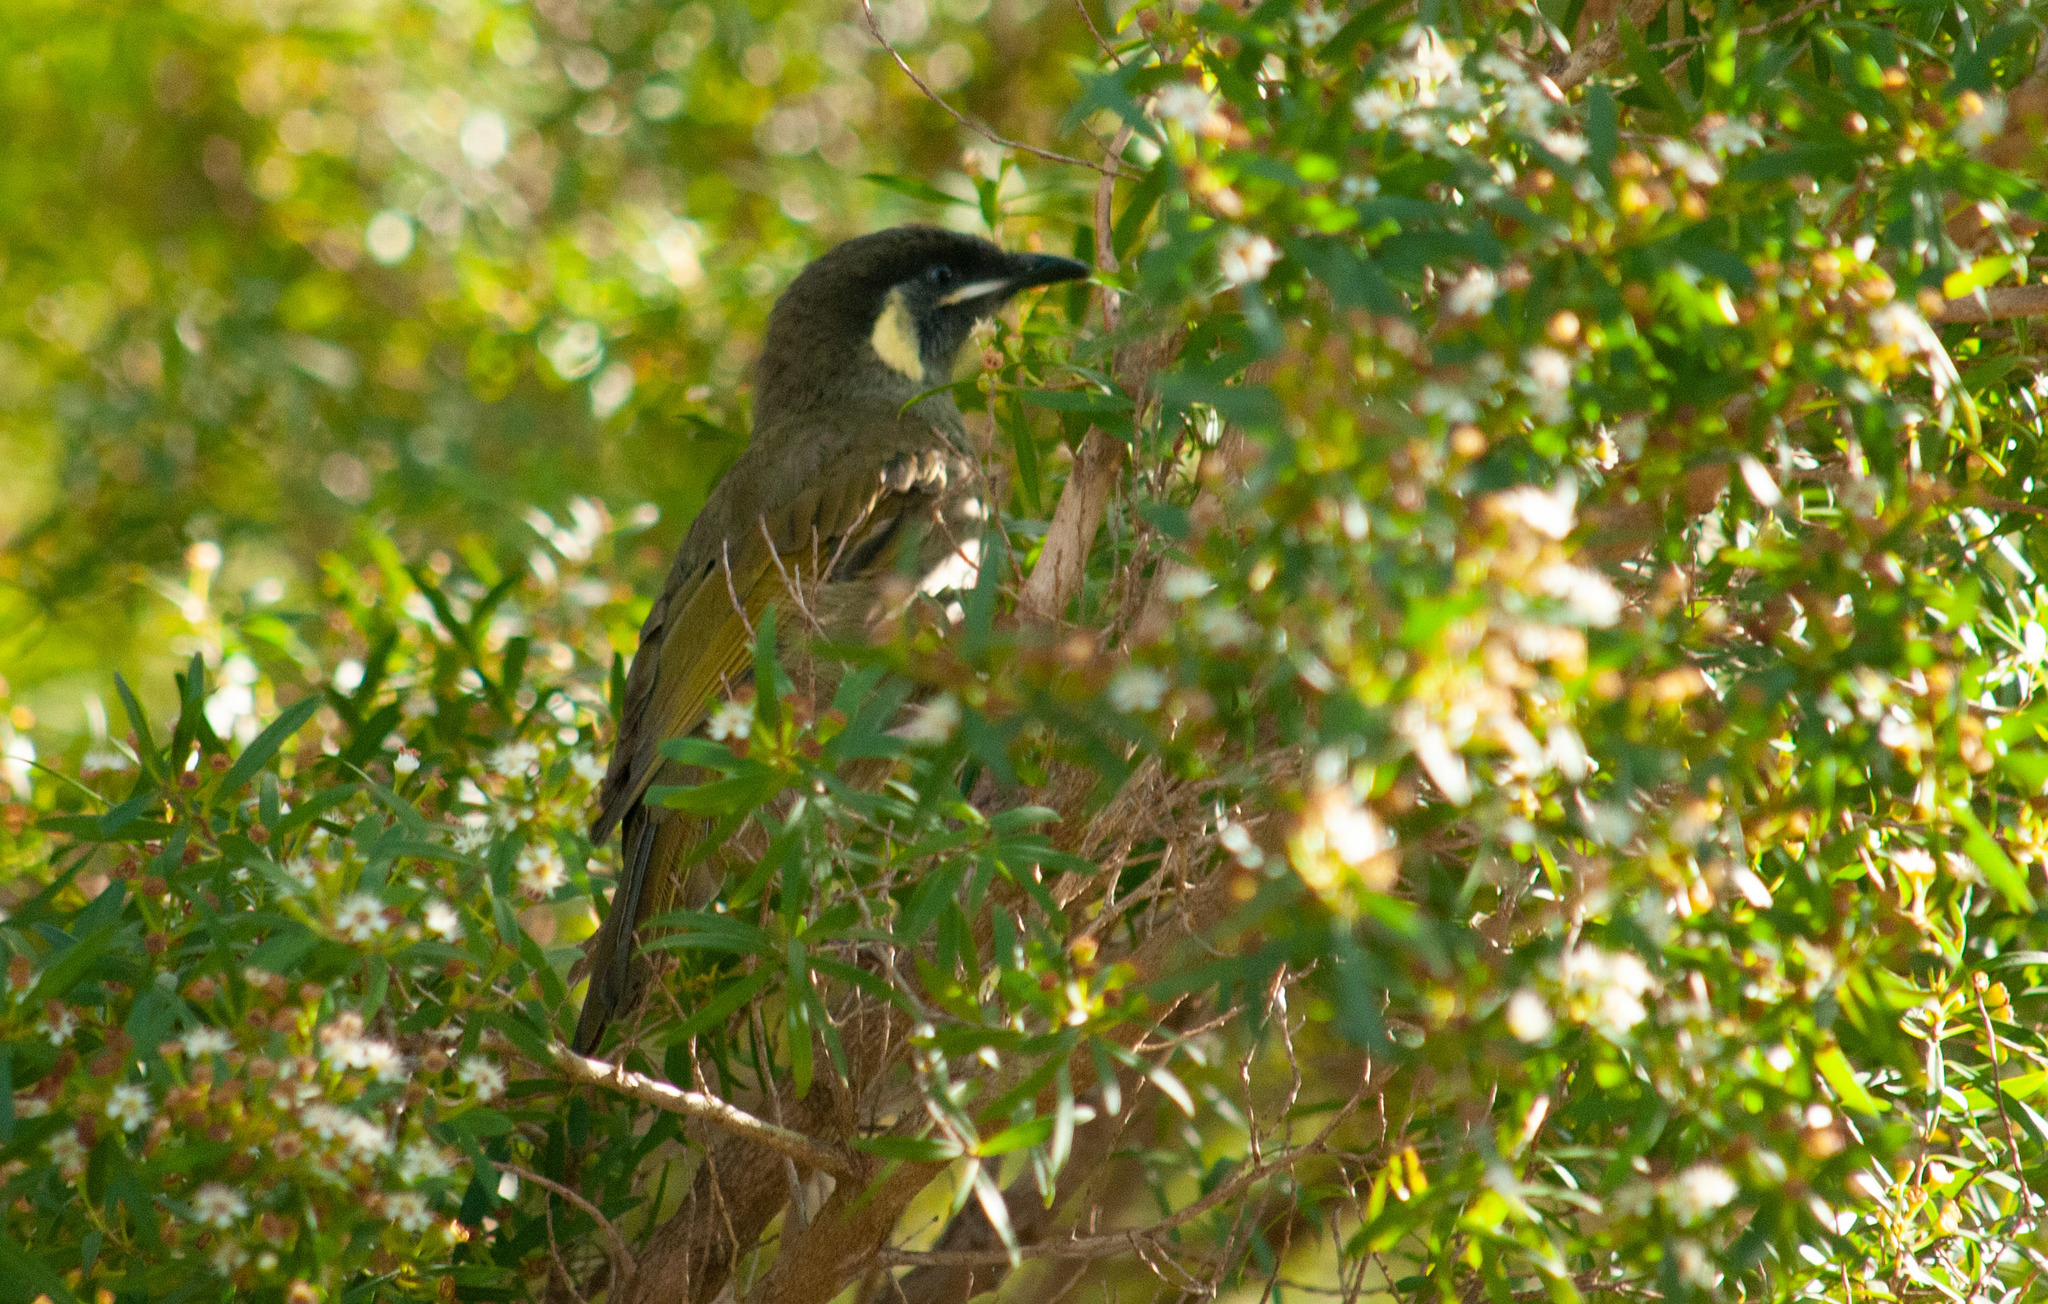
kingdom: Animalia
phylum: Chordata
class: Aves
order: Passeriformes
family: Meliphagidae
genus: Meliphaga
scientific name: Meliphaga lewinii
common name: Lewin's honeyeater
